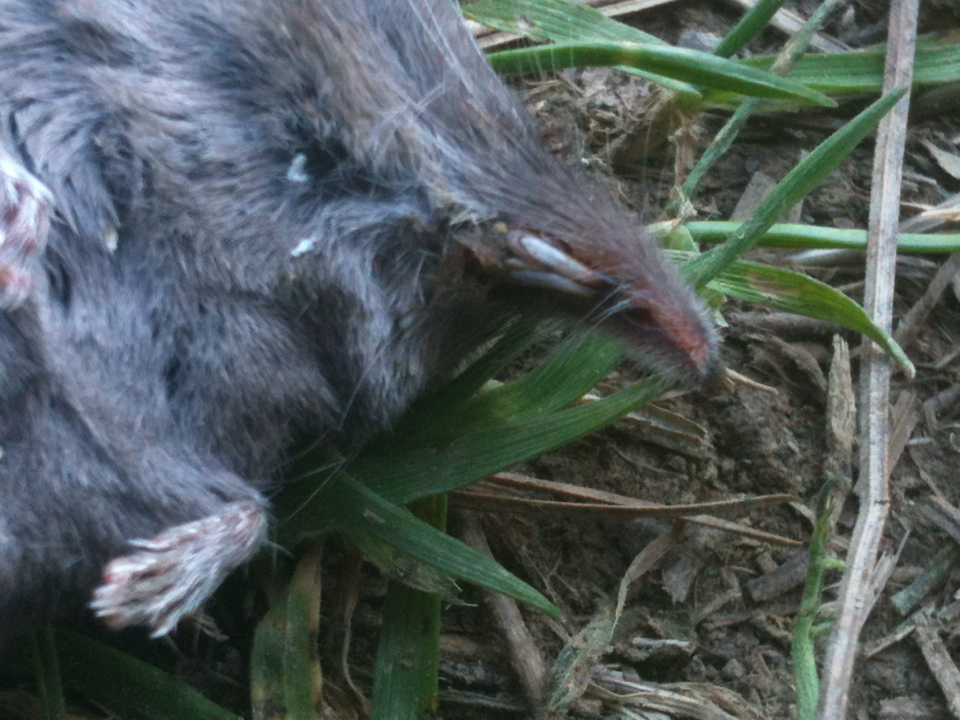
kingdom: Animalia
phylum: Chordata
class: Mammalia
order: Soricomorpha
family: Soricidae
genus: Sorex
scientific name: Sorex trowbridgii
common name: Trowbridge's shrew
